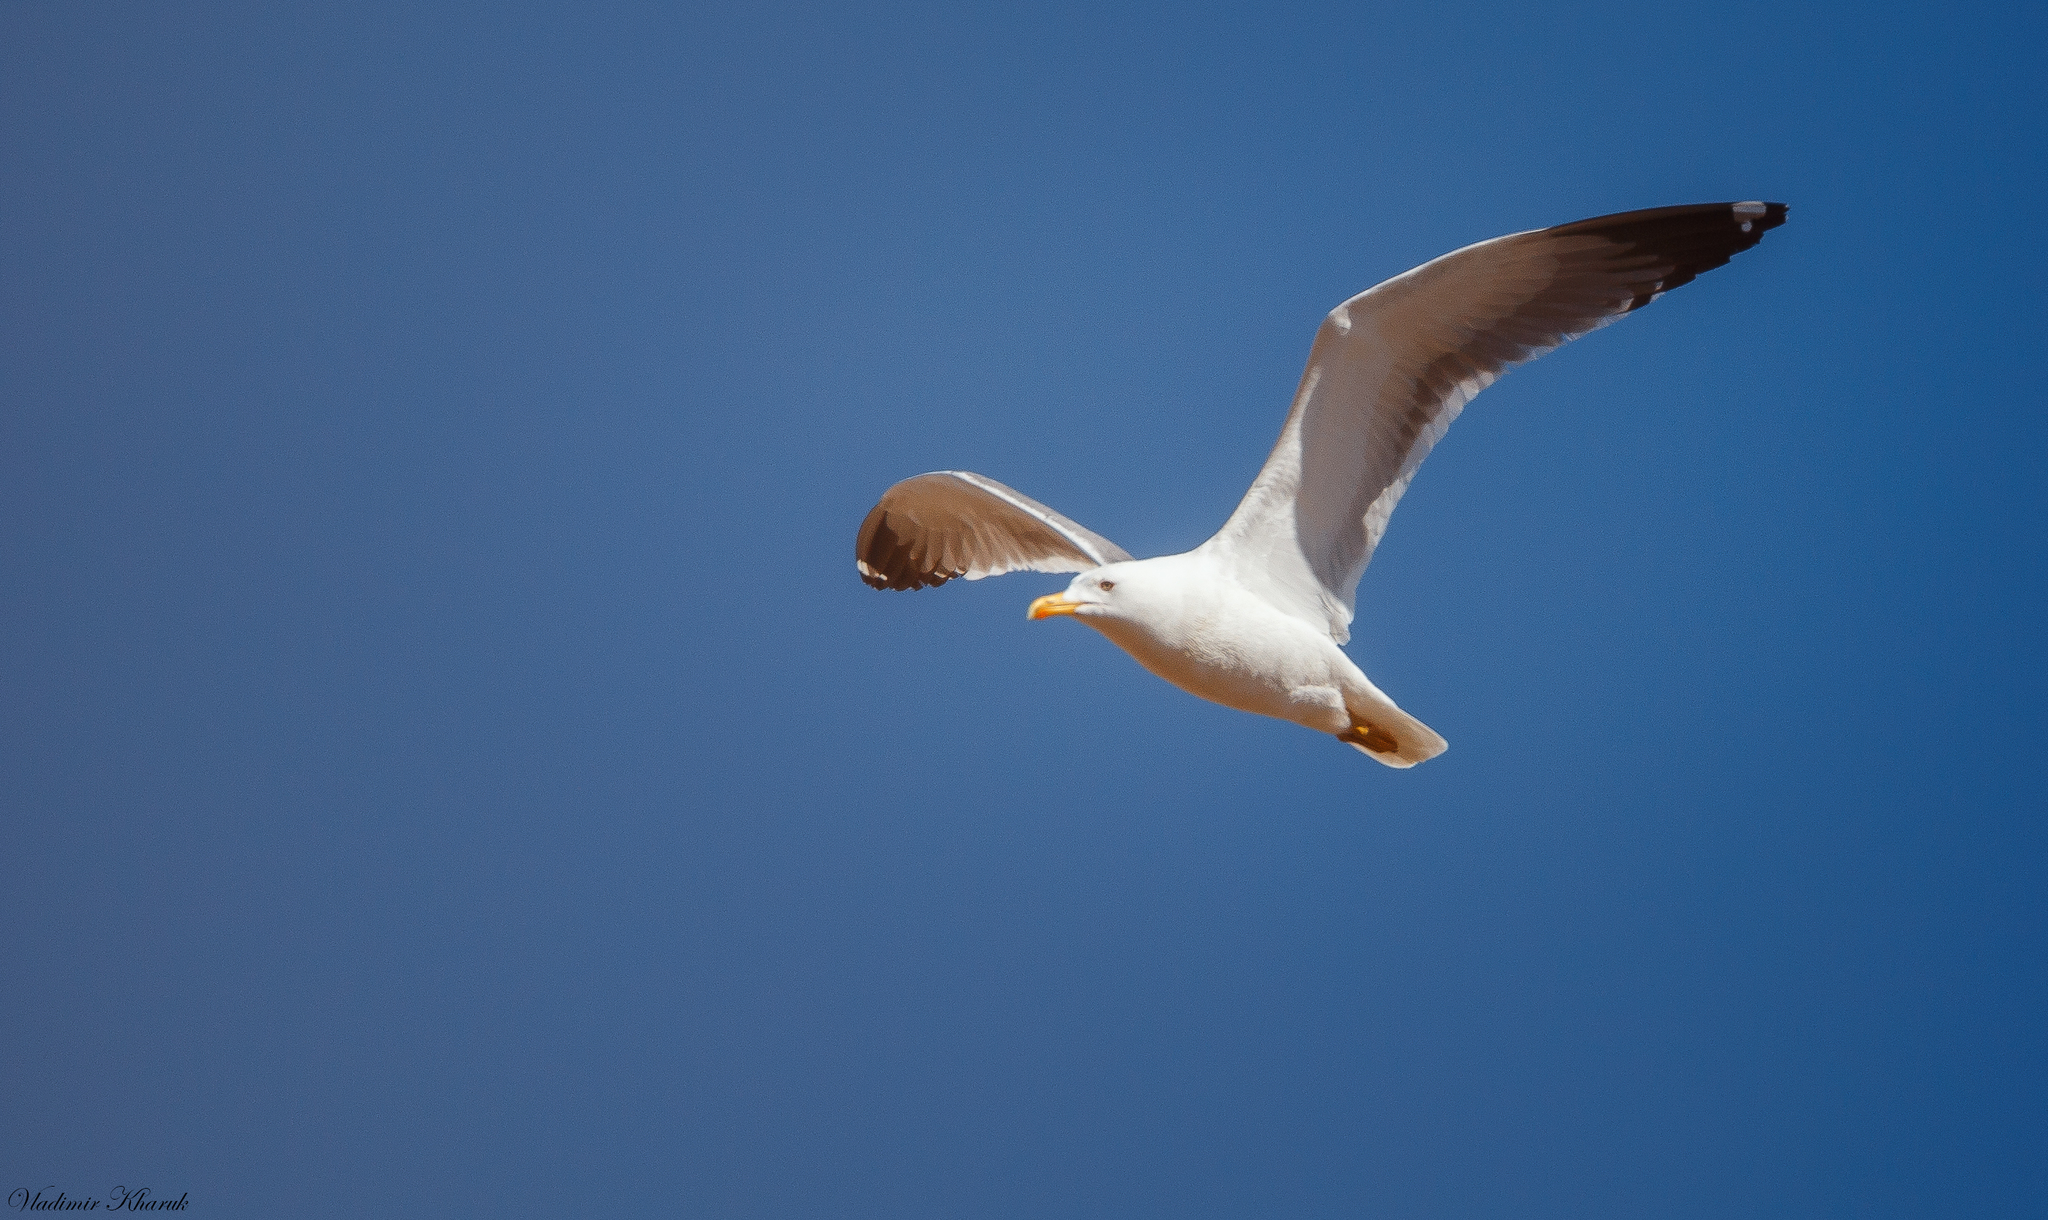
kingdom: Animalia
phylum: Chordata
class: Aves
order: Charadriiformes
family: Laridae
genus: Larus
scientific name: Larus fuscus
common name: Lesser black-backed gull
